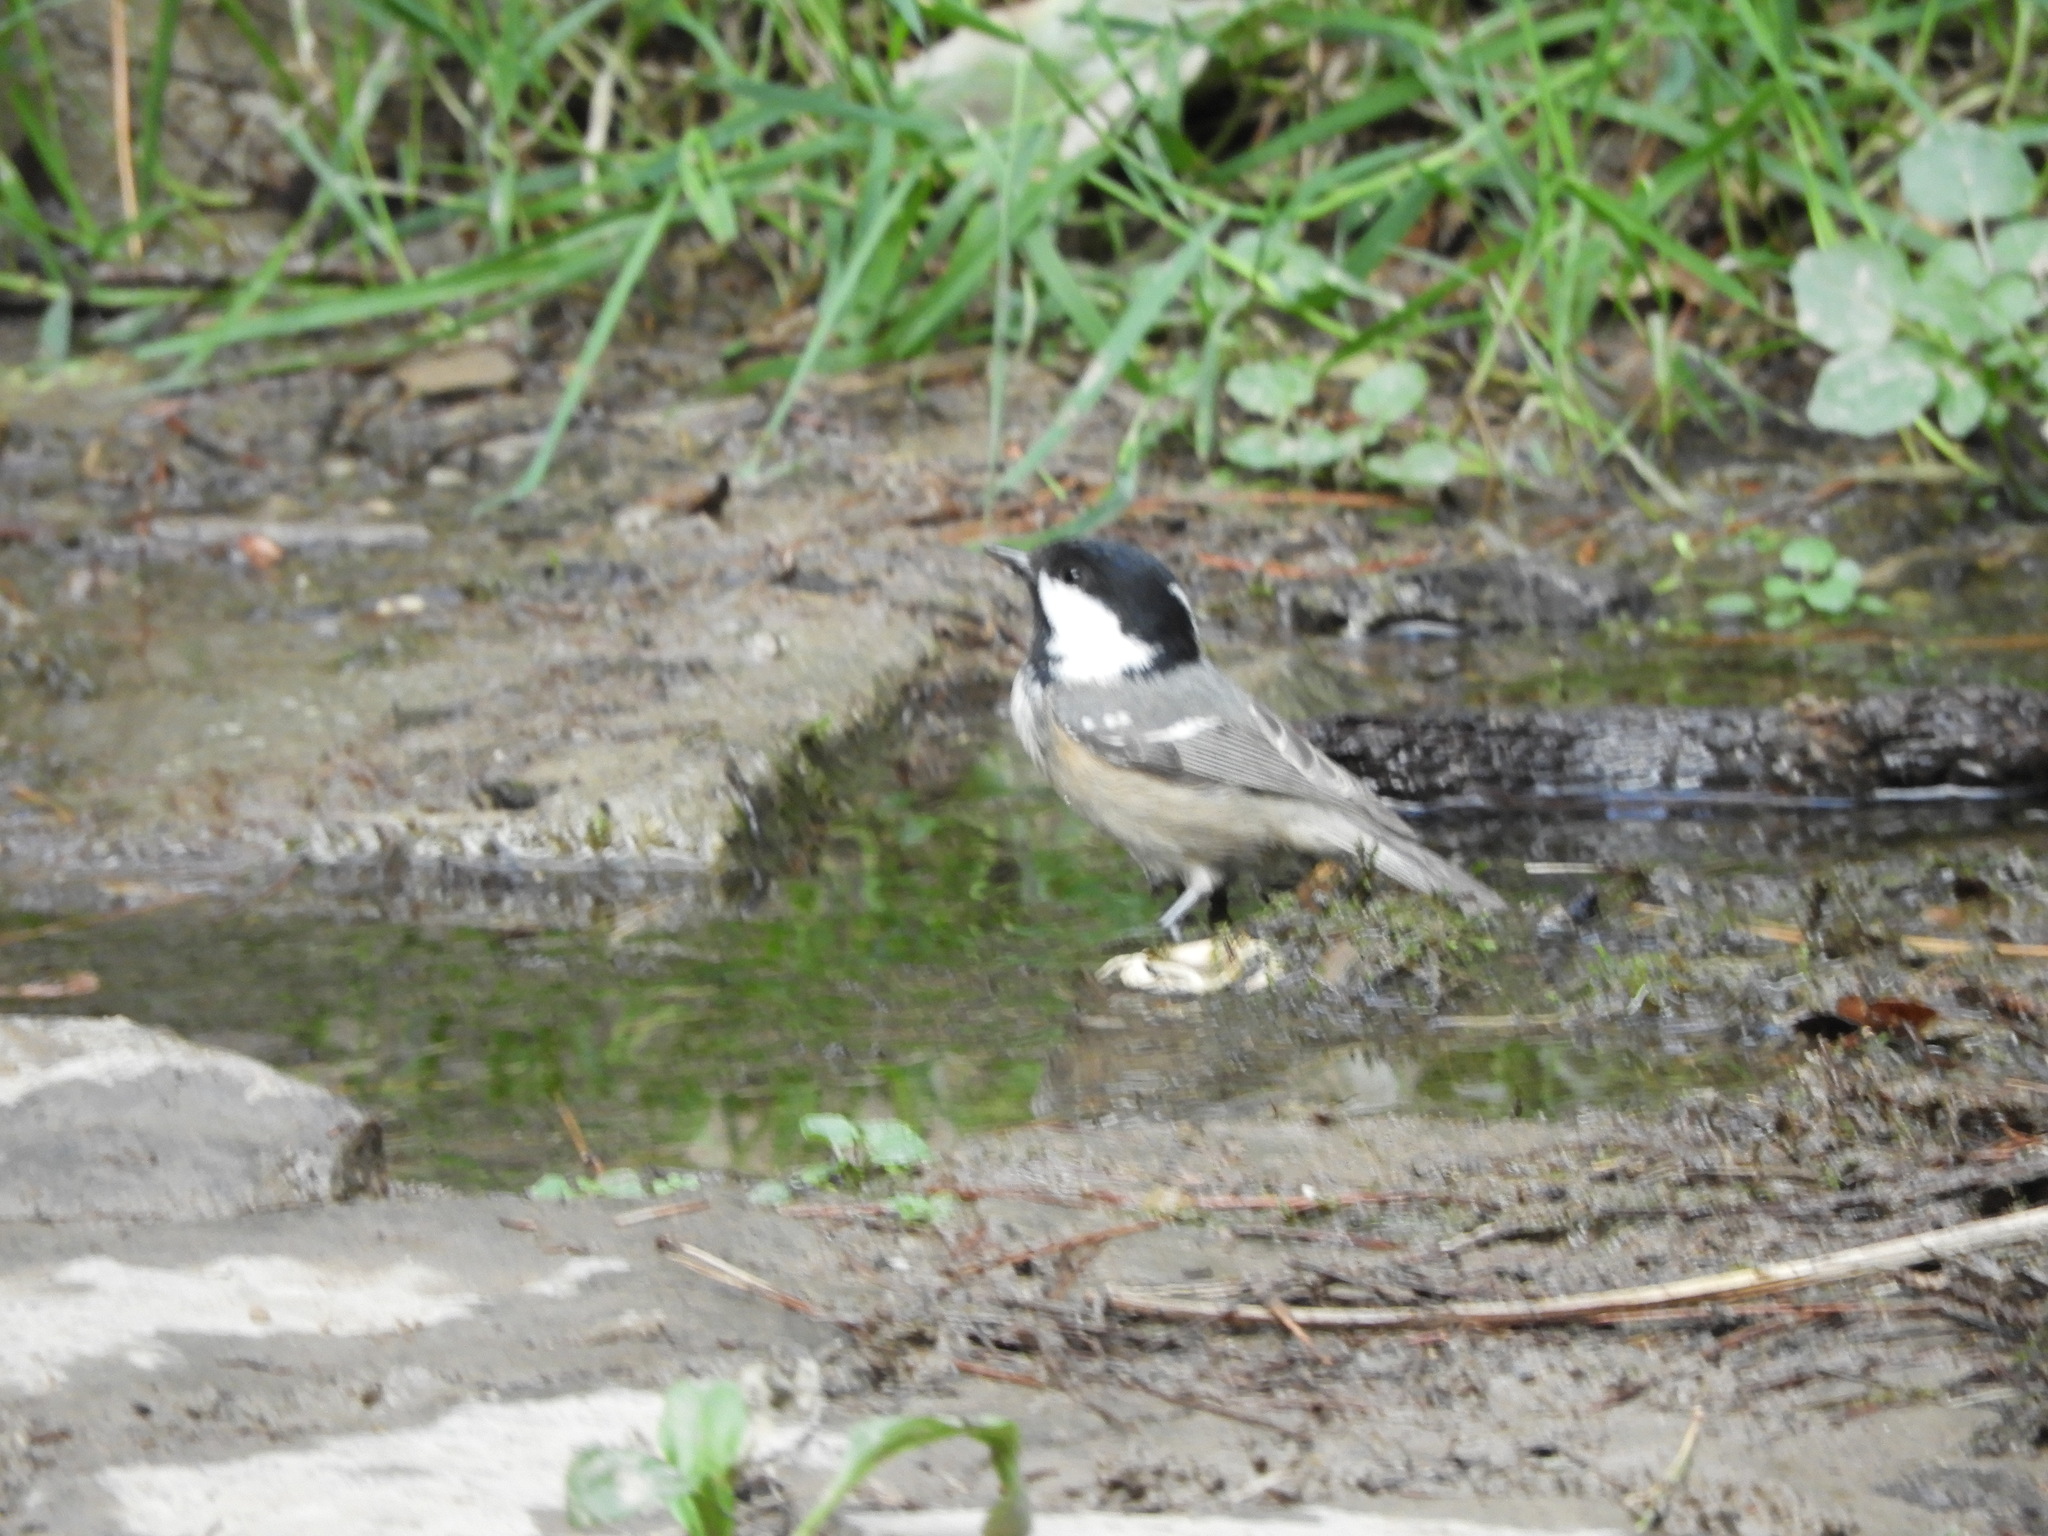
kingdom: Animalia
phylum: Chordata
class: Aves
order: Passeriformes
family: Paridae
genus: Periparus
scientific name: Periparus ater
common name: Coal tit
